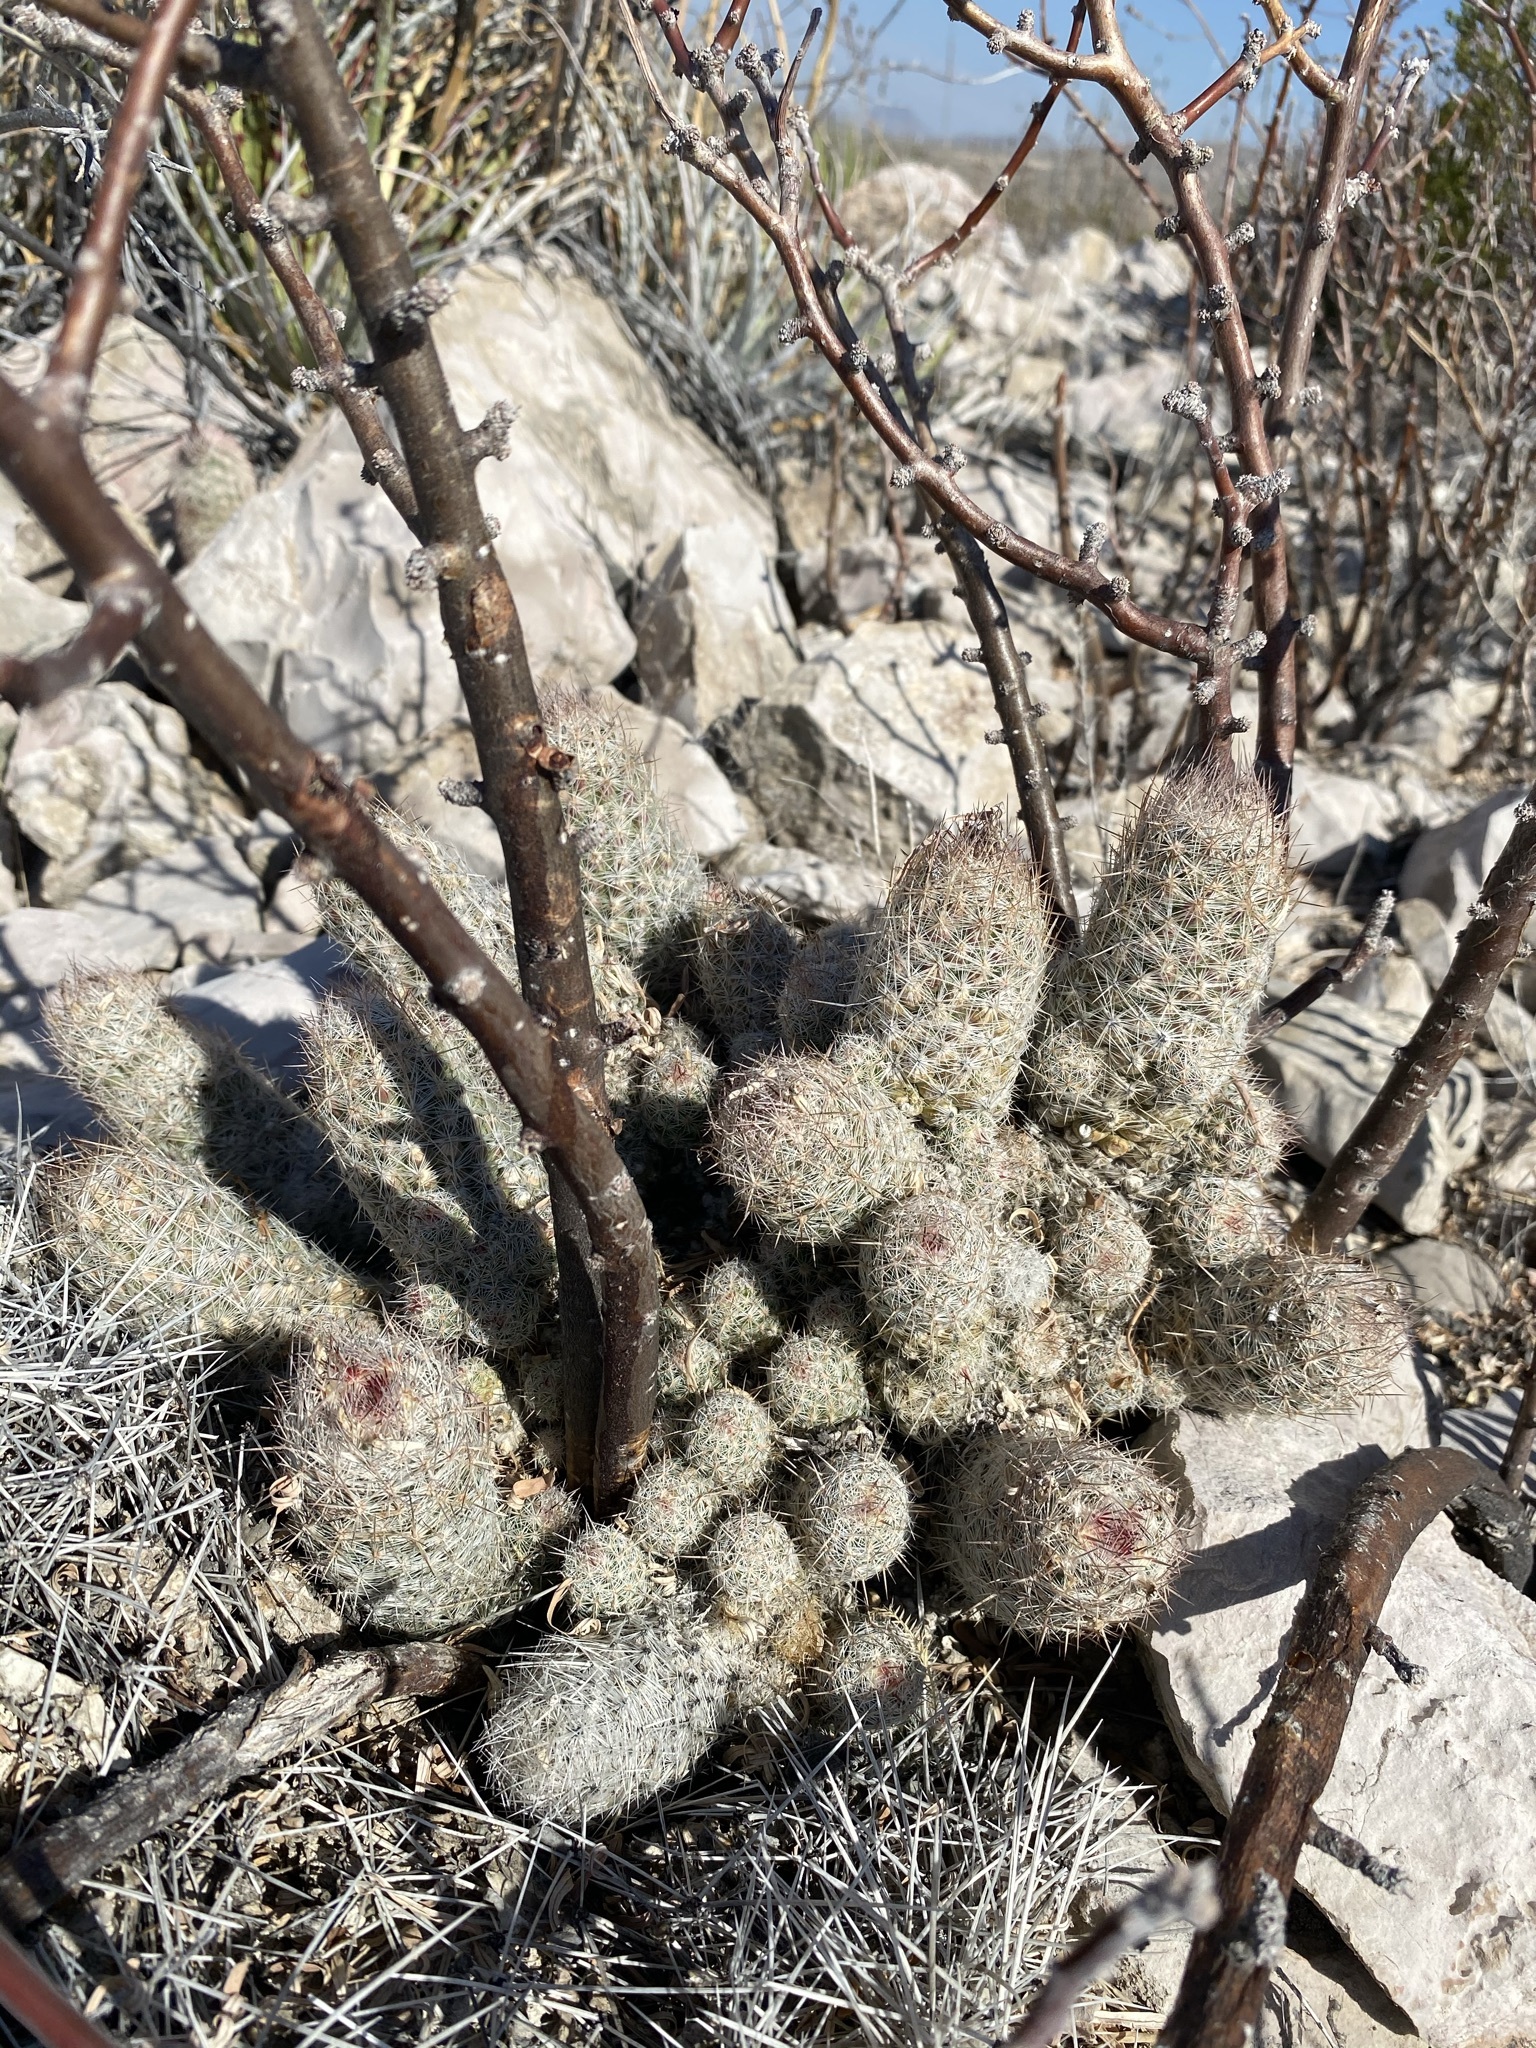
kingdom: Plantae
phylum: Tracheophyta
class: Magnoliopsida
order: Caryophyllales
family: Cactaceae
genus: Pelecyphora
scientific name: Pelecyphora tuberculosa
